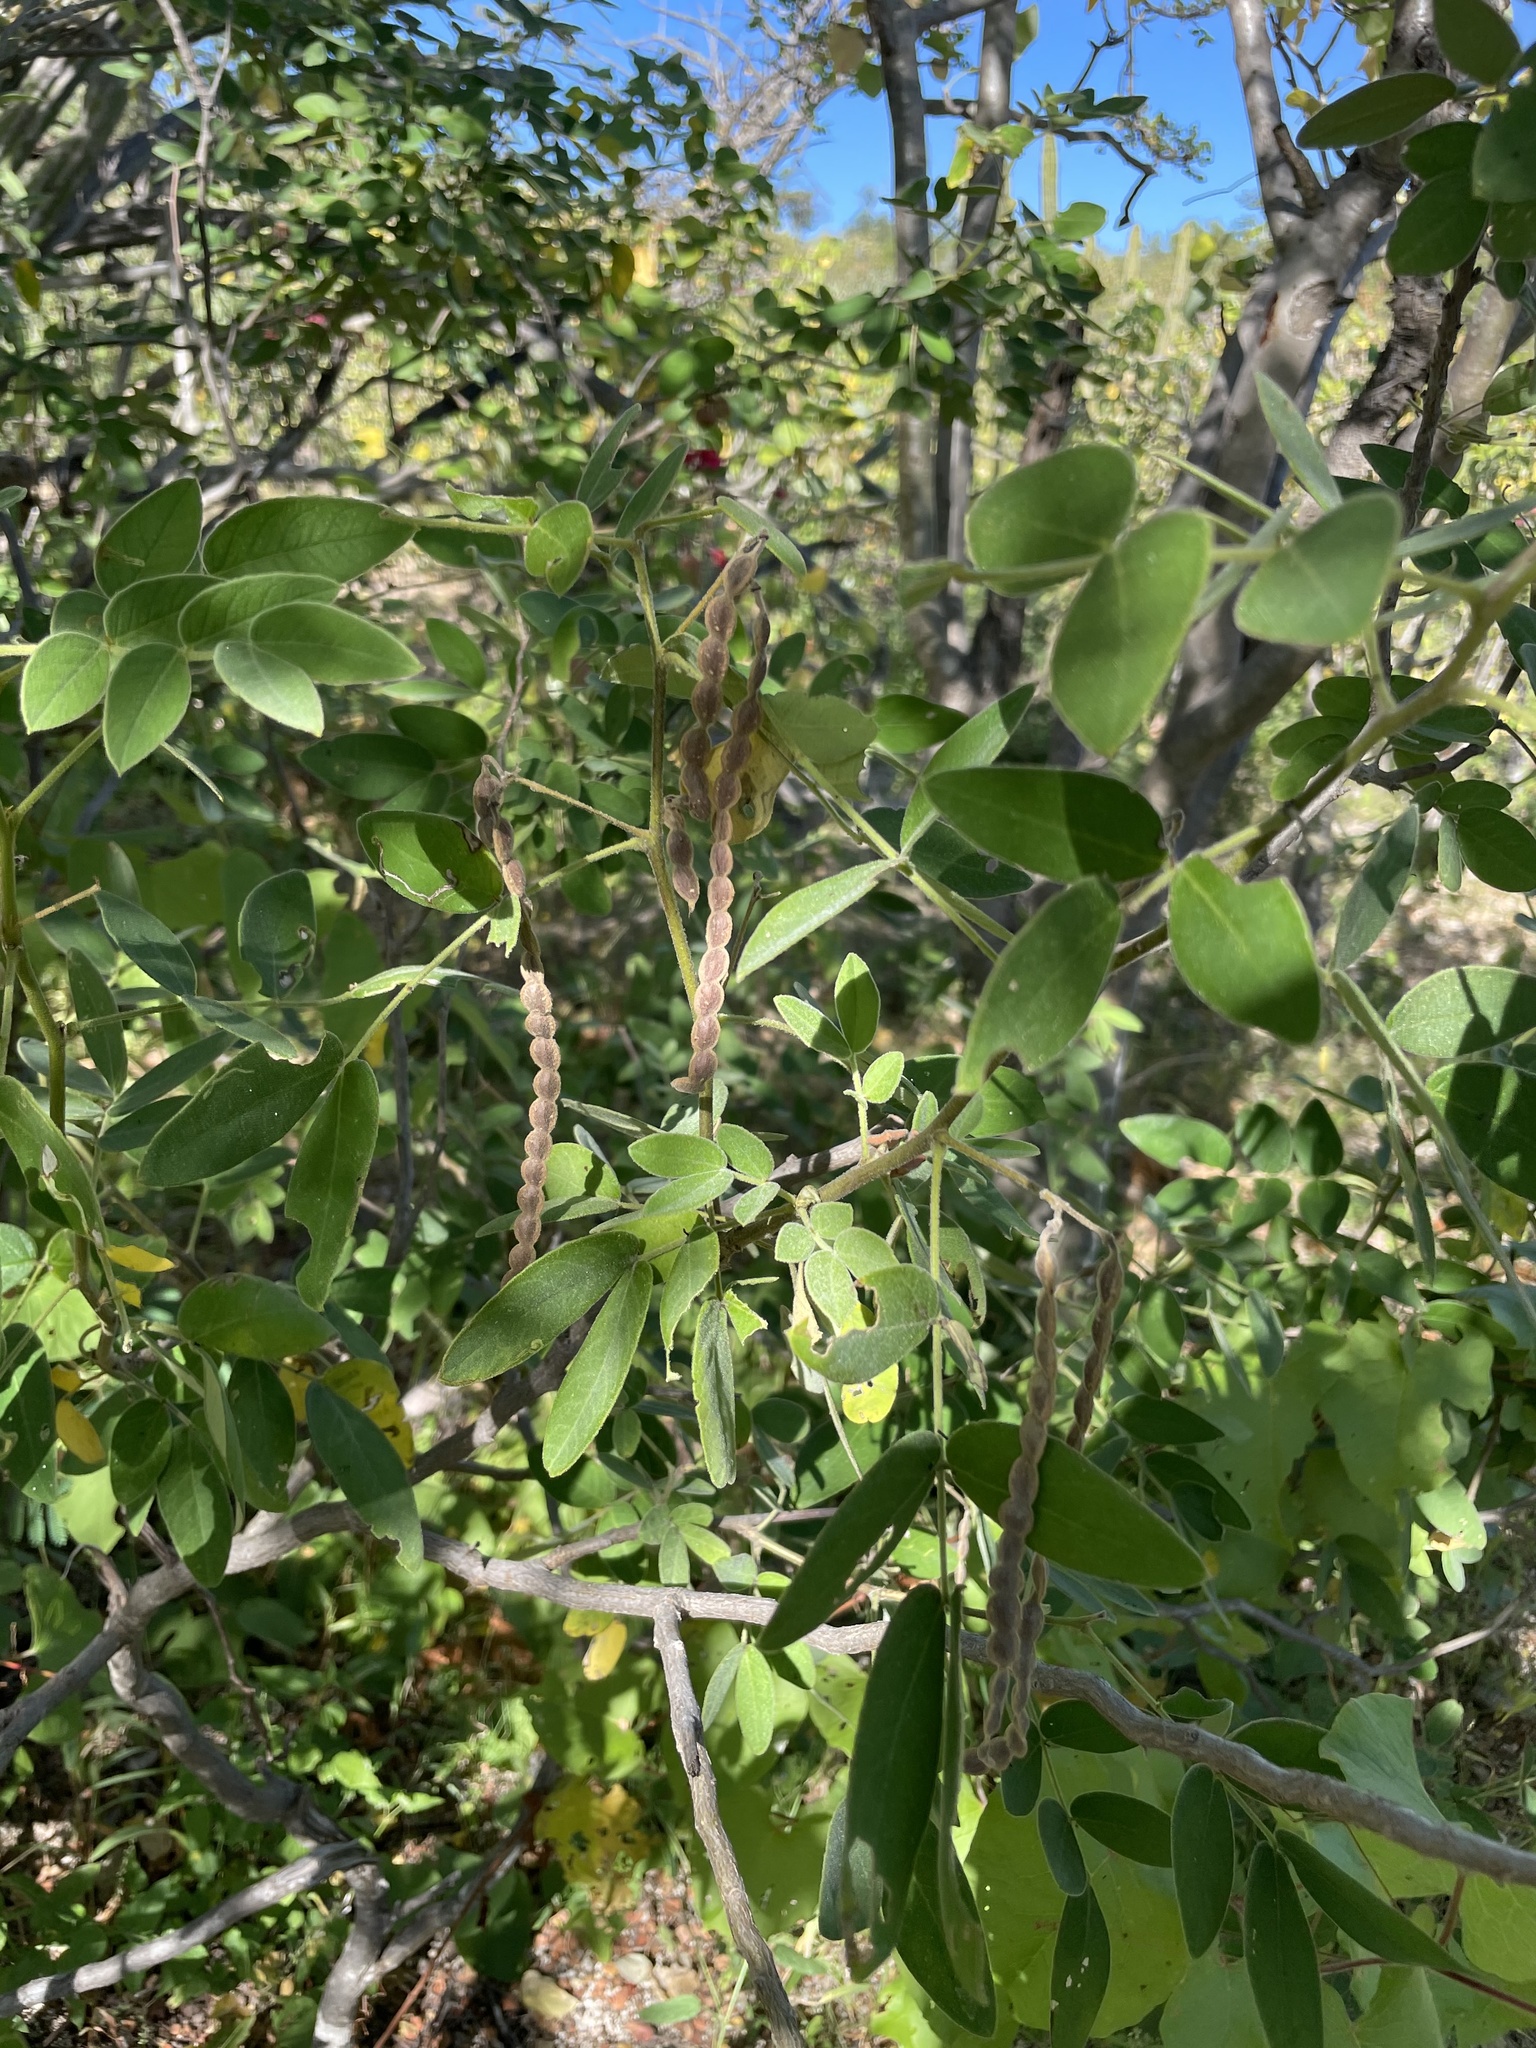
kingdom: Plantae
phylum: Tracheophyta
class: Magnoliopsida
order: Fabales
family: Fabaceae
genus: Senna
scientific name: Senna villosa
